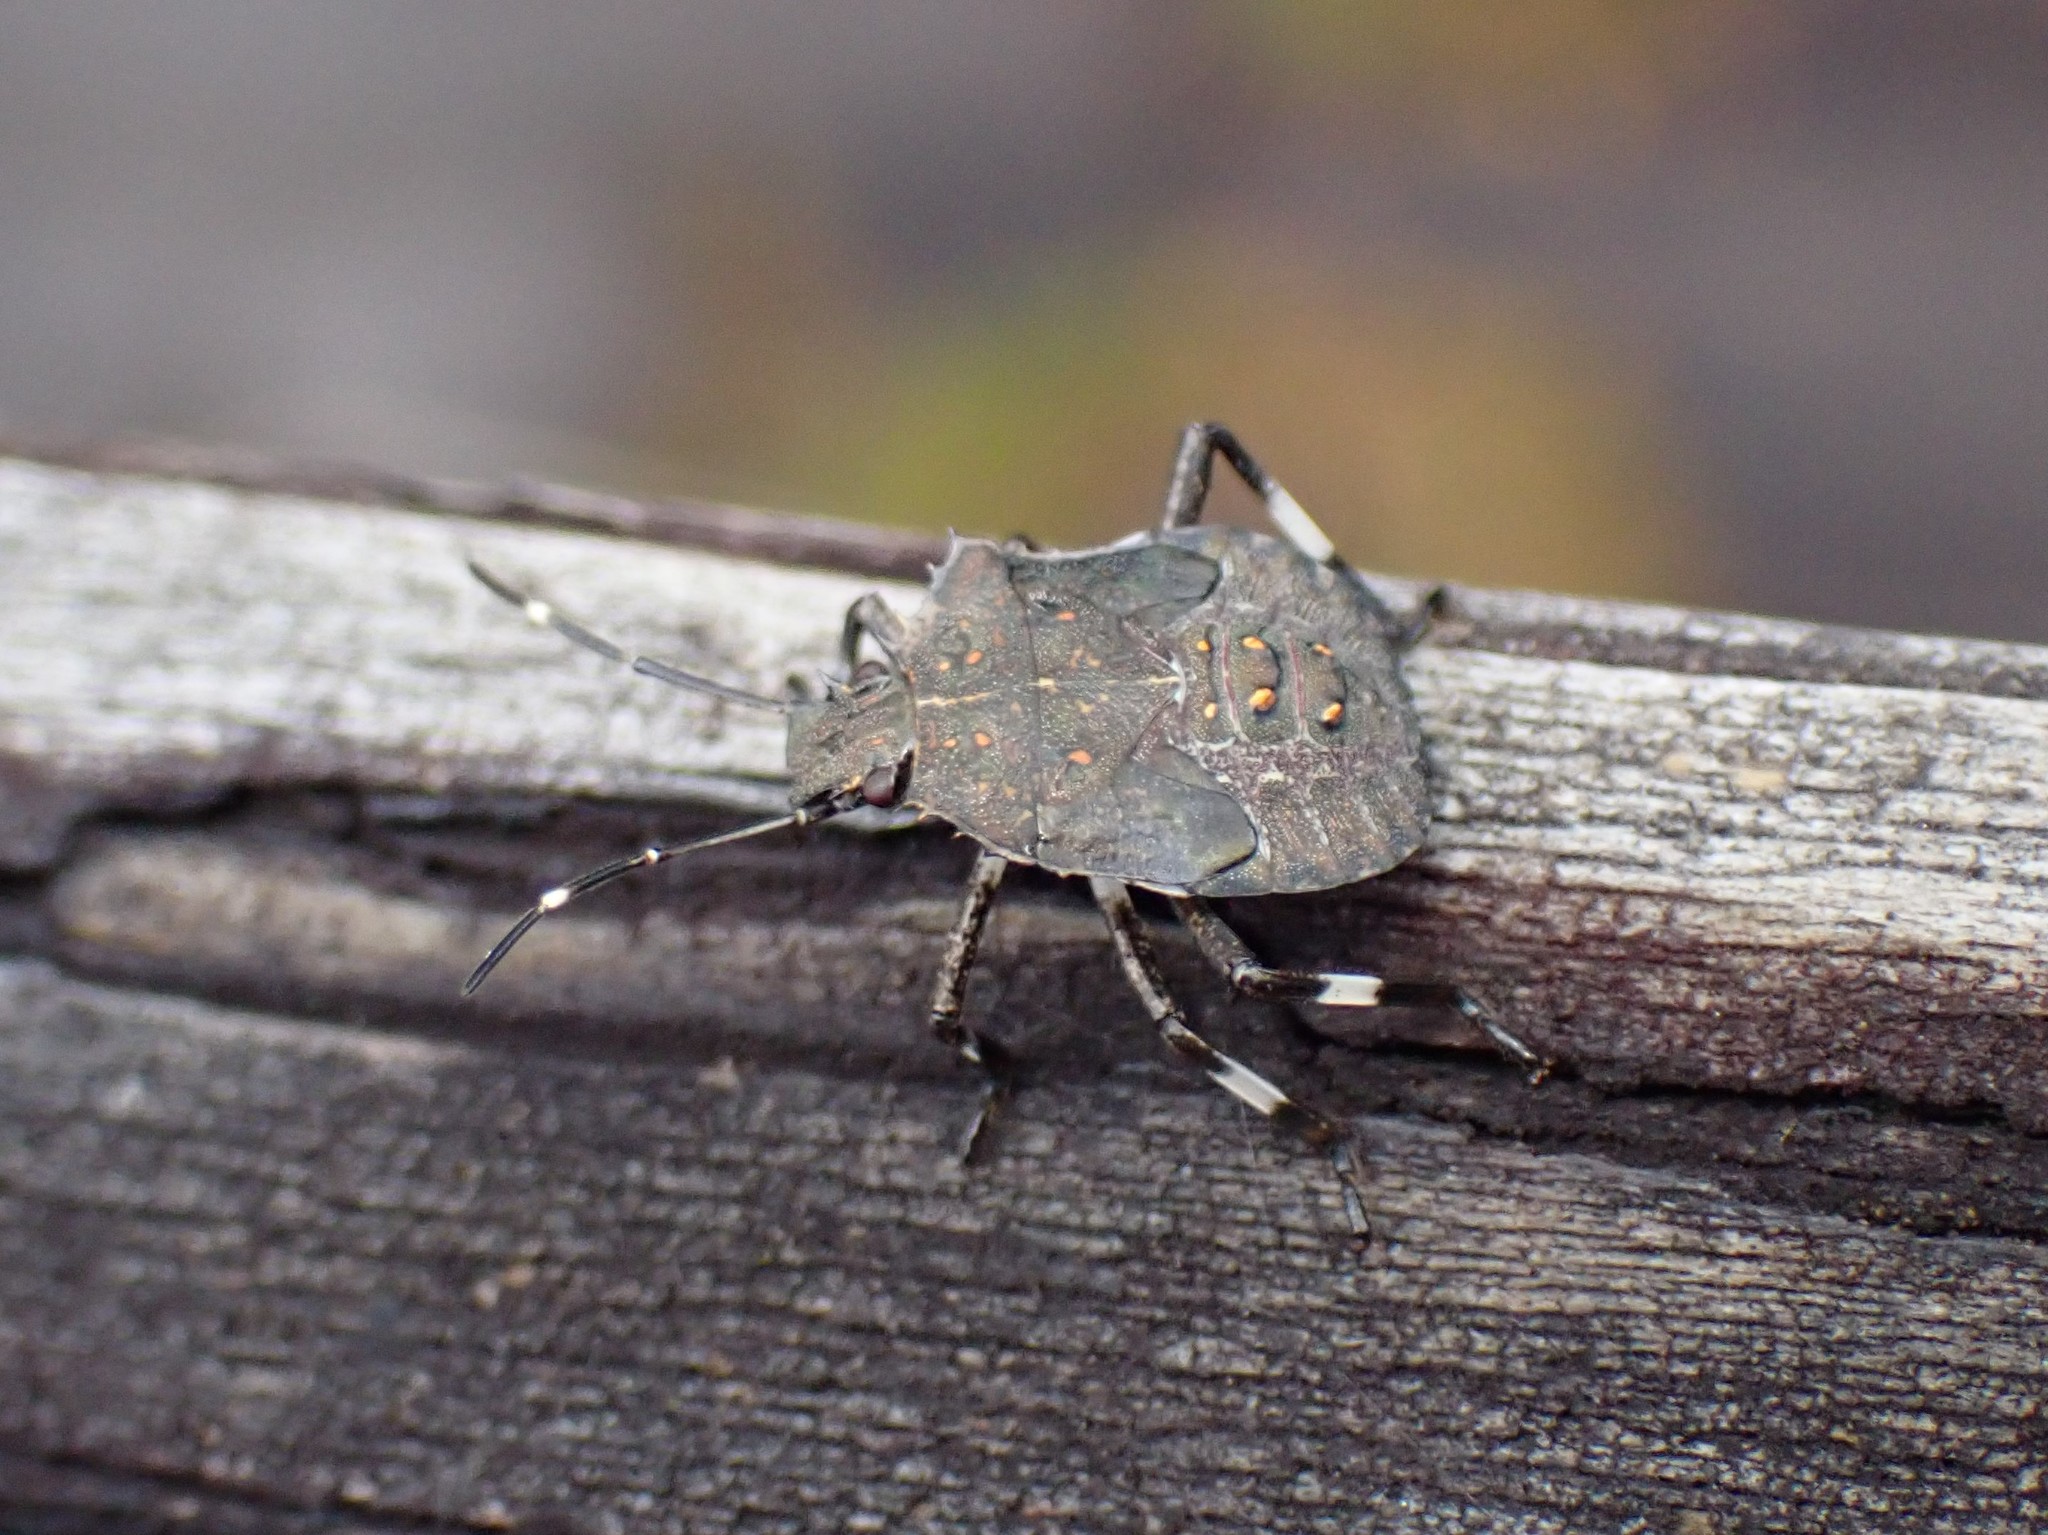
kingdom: Animalia
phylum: Arthropoda
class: Insecta
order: Hemiptera
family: Pentatomidae
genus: Halyomorpha
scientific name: Halyomorpha halys
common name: Brown marmorated stink bug
